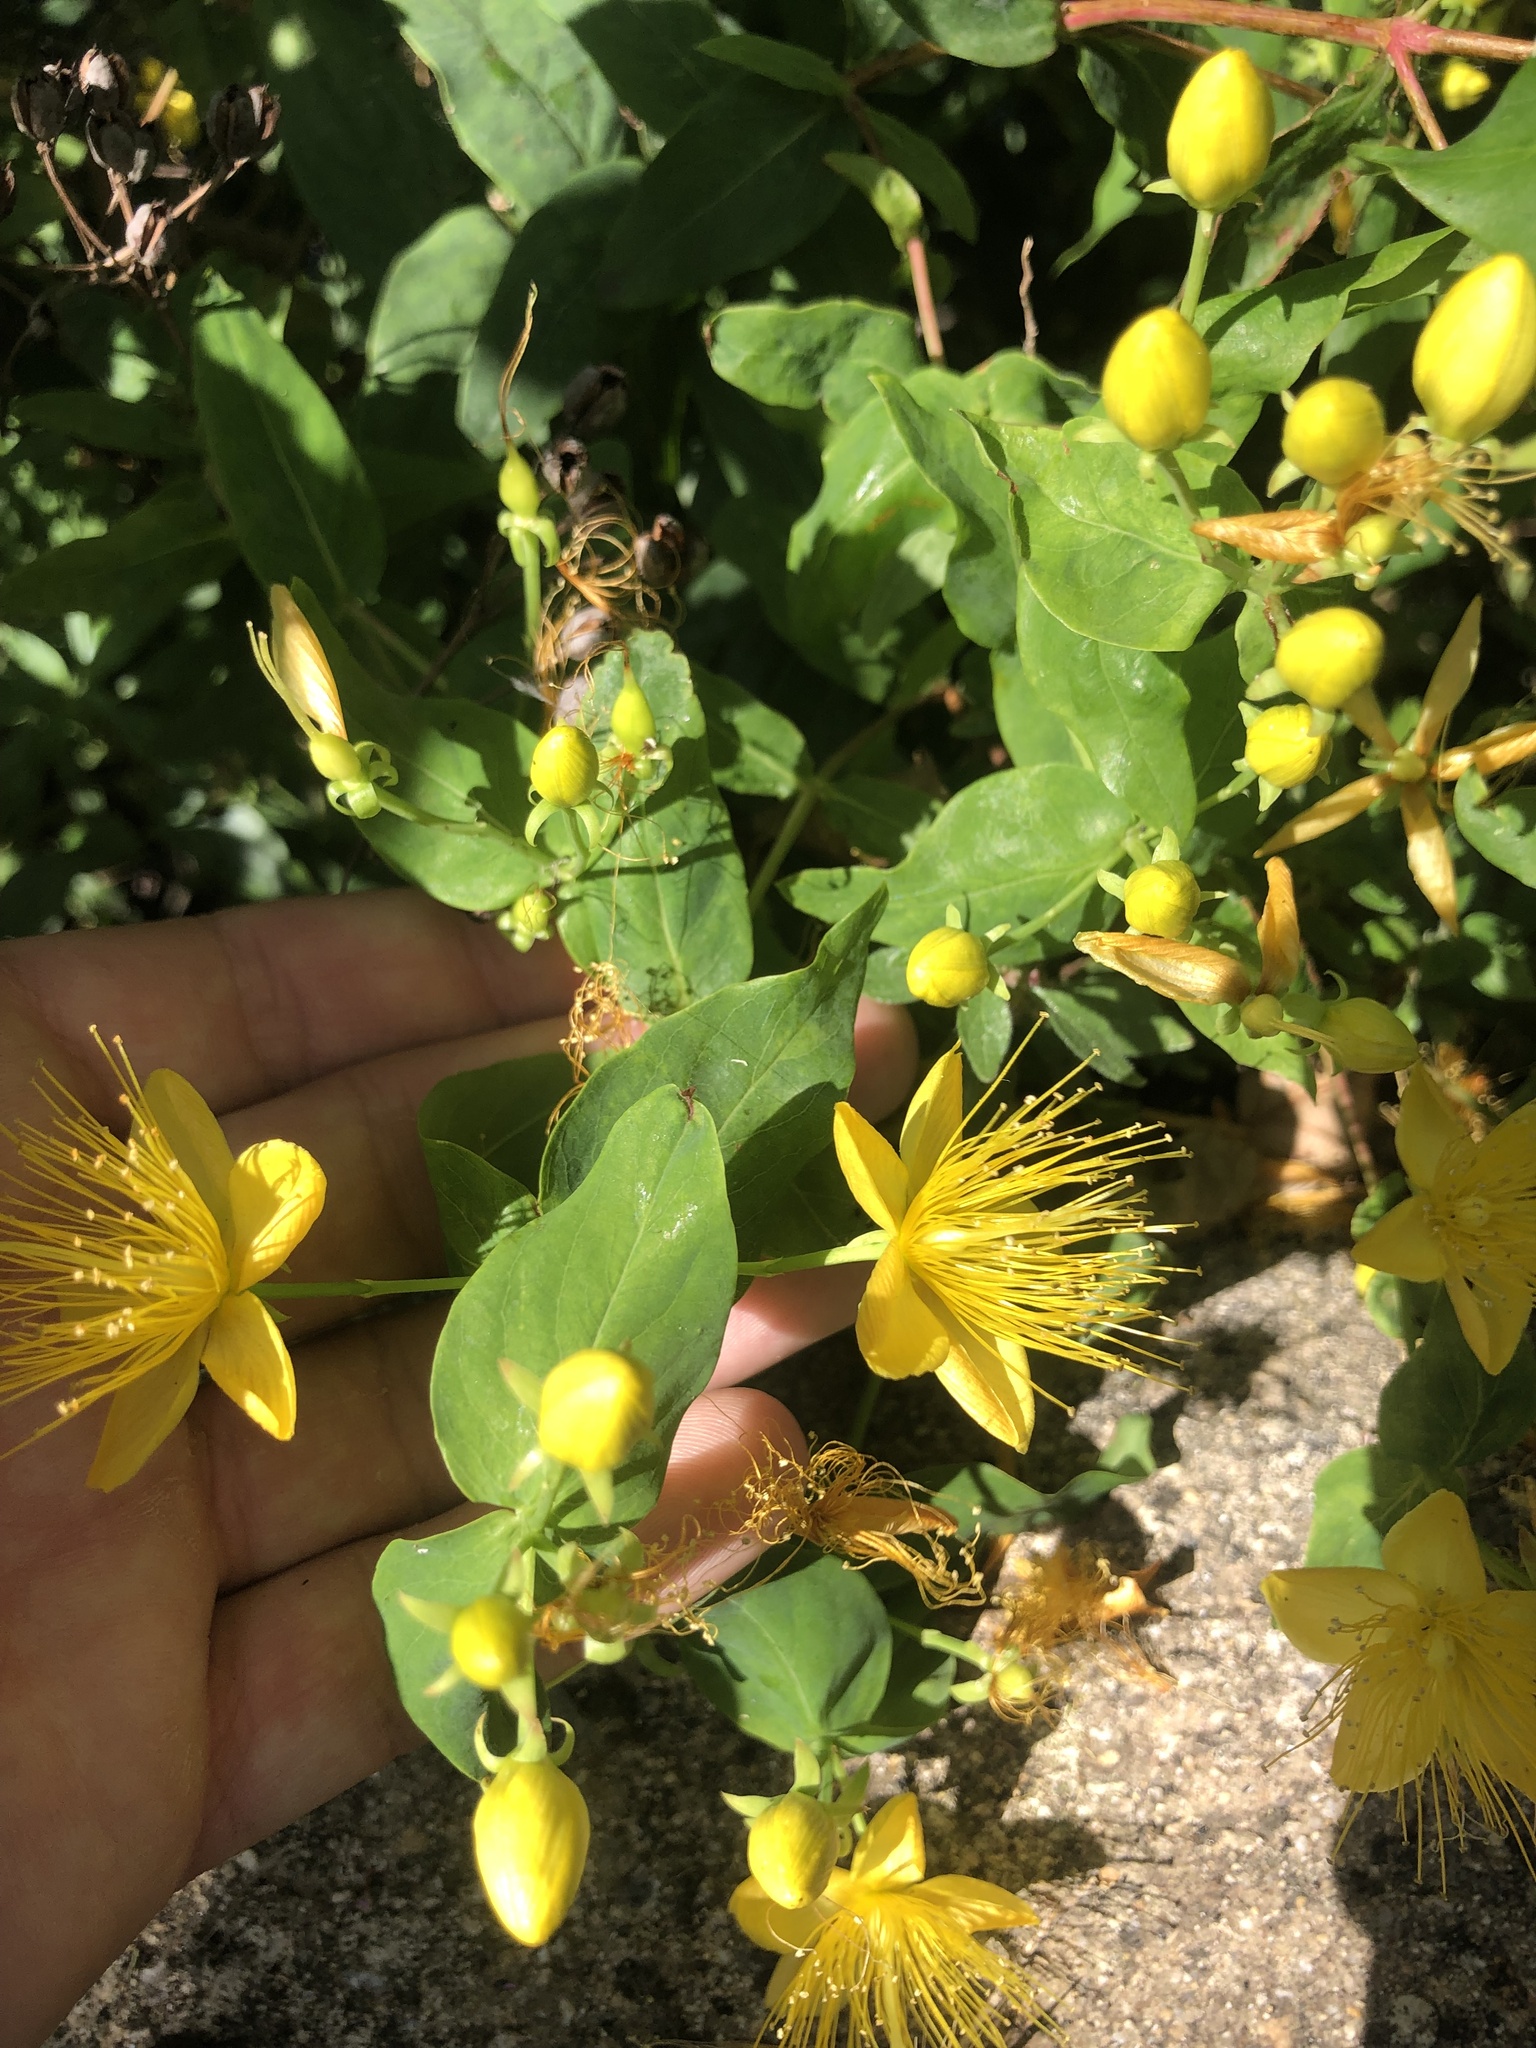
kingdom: Plantae
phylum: Tracheophyta
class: Magnoliopsida
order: Malpighiales
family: Hypericaceae
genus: Hypericum
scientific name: Hypericum hircinum
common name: Stinking tutsan
